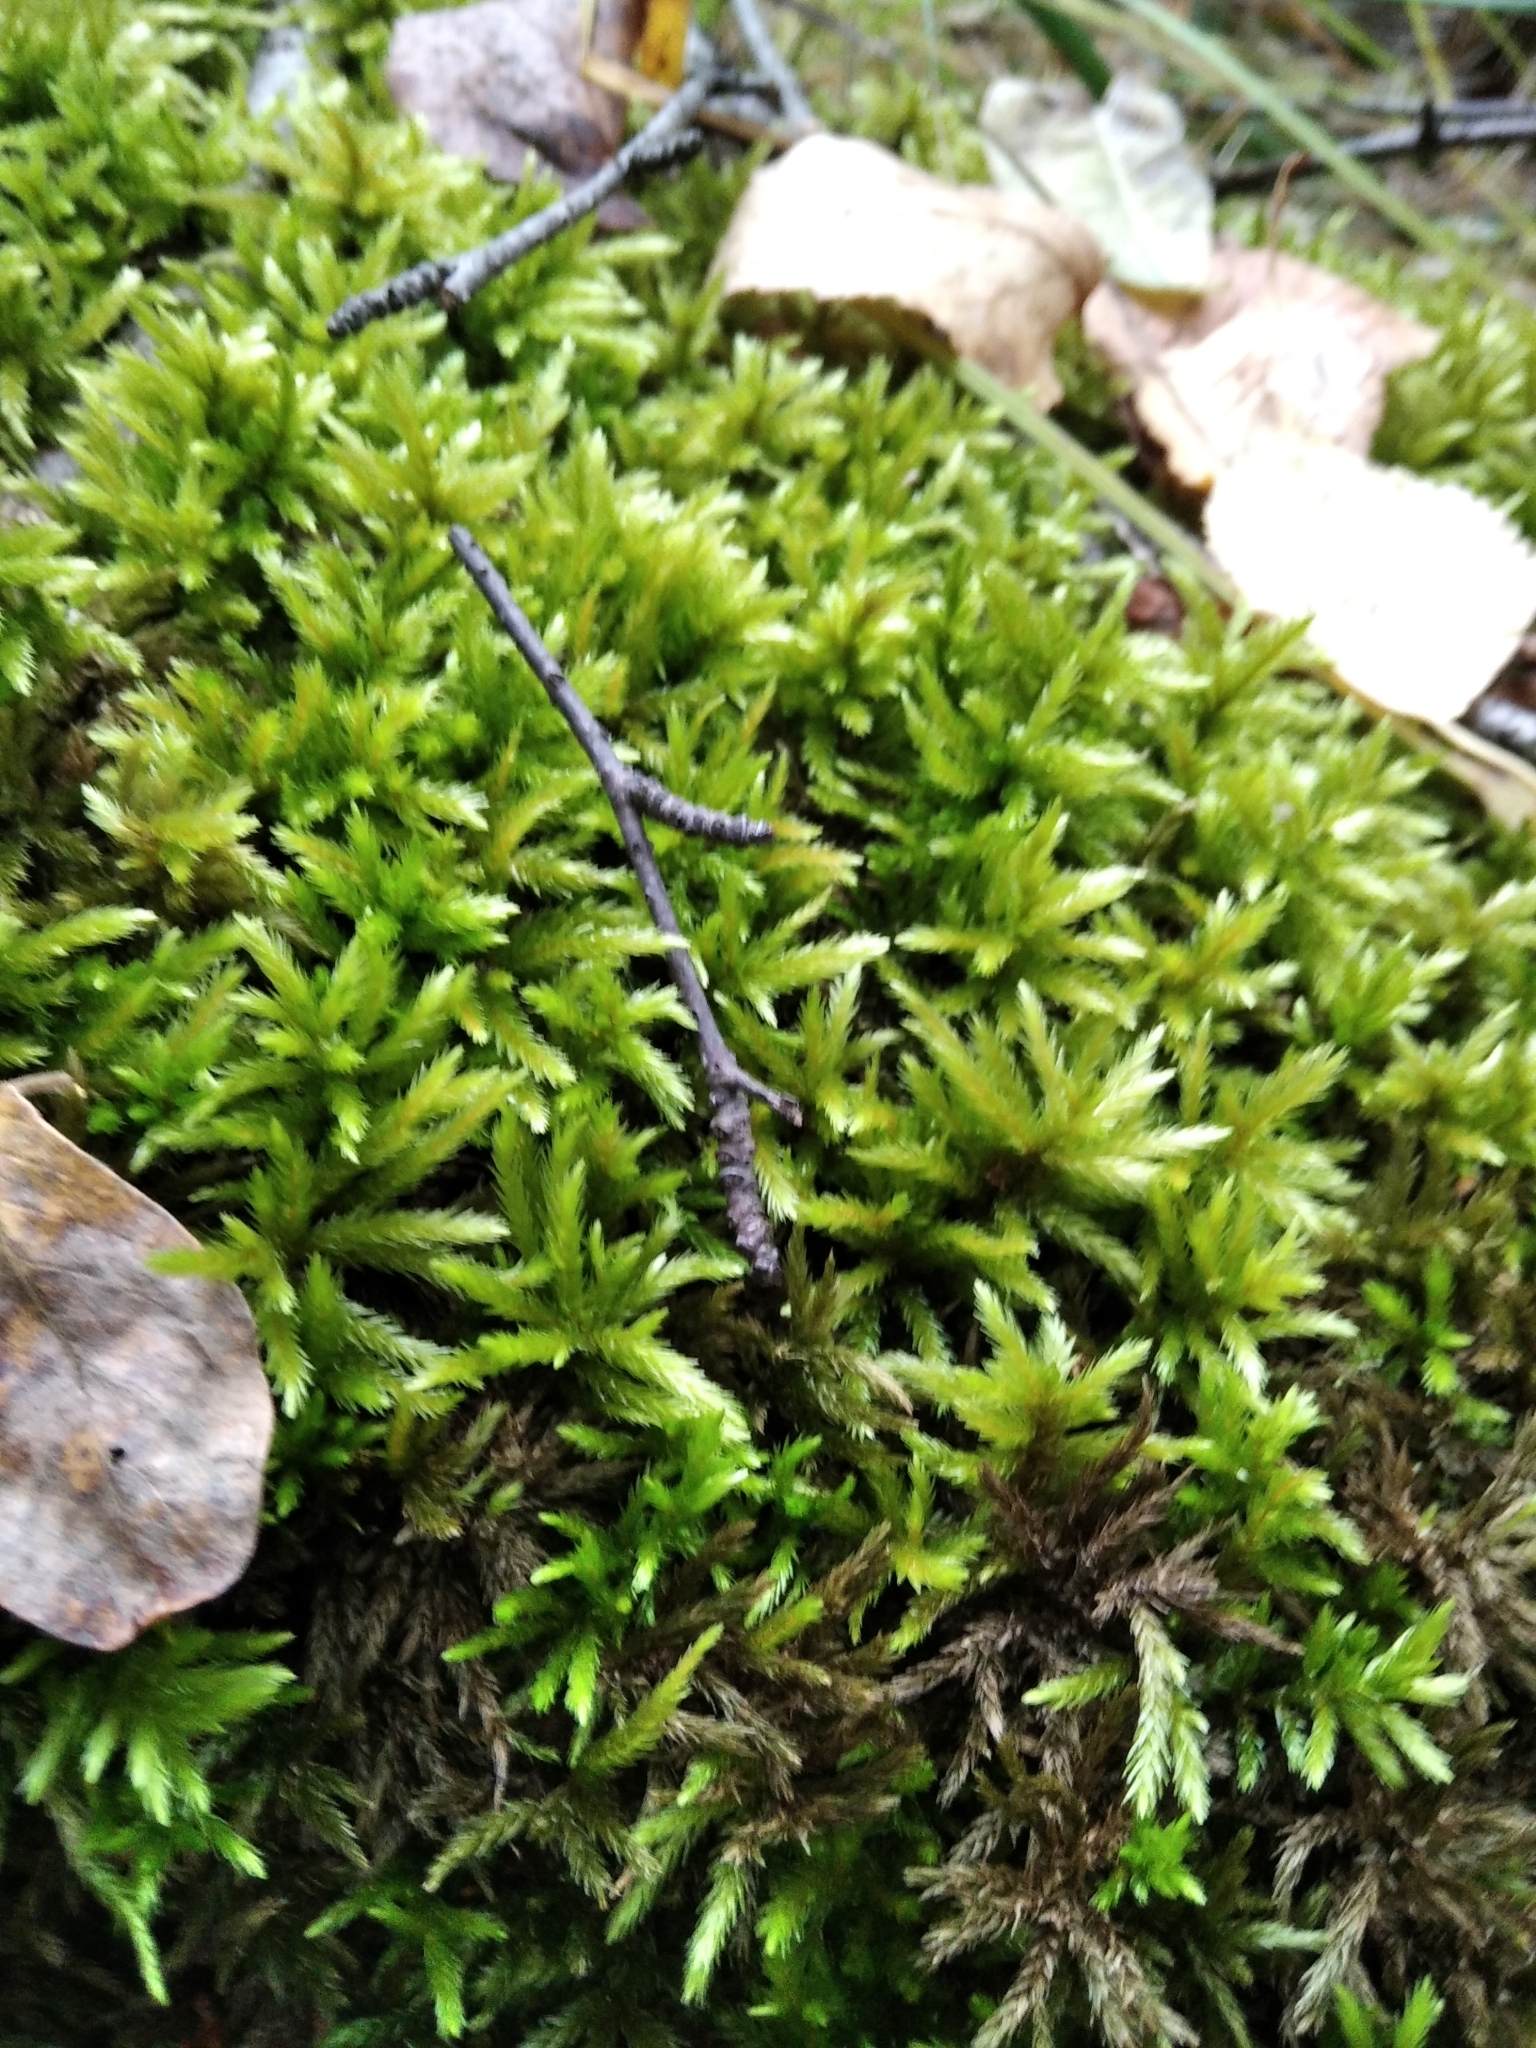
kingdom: Plantae
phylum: Bryophyta
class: Bryopsida
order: Hypnales
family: Climaciaceae
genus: Climacium
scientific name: Climacium dendroides
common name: Northern tree moss
